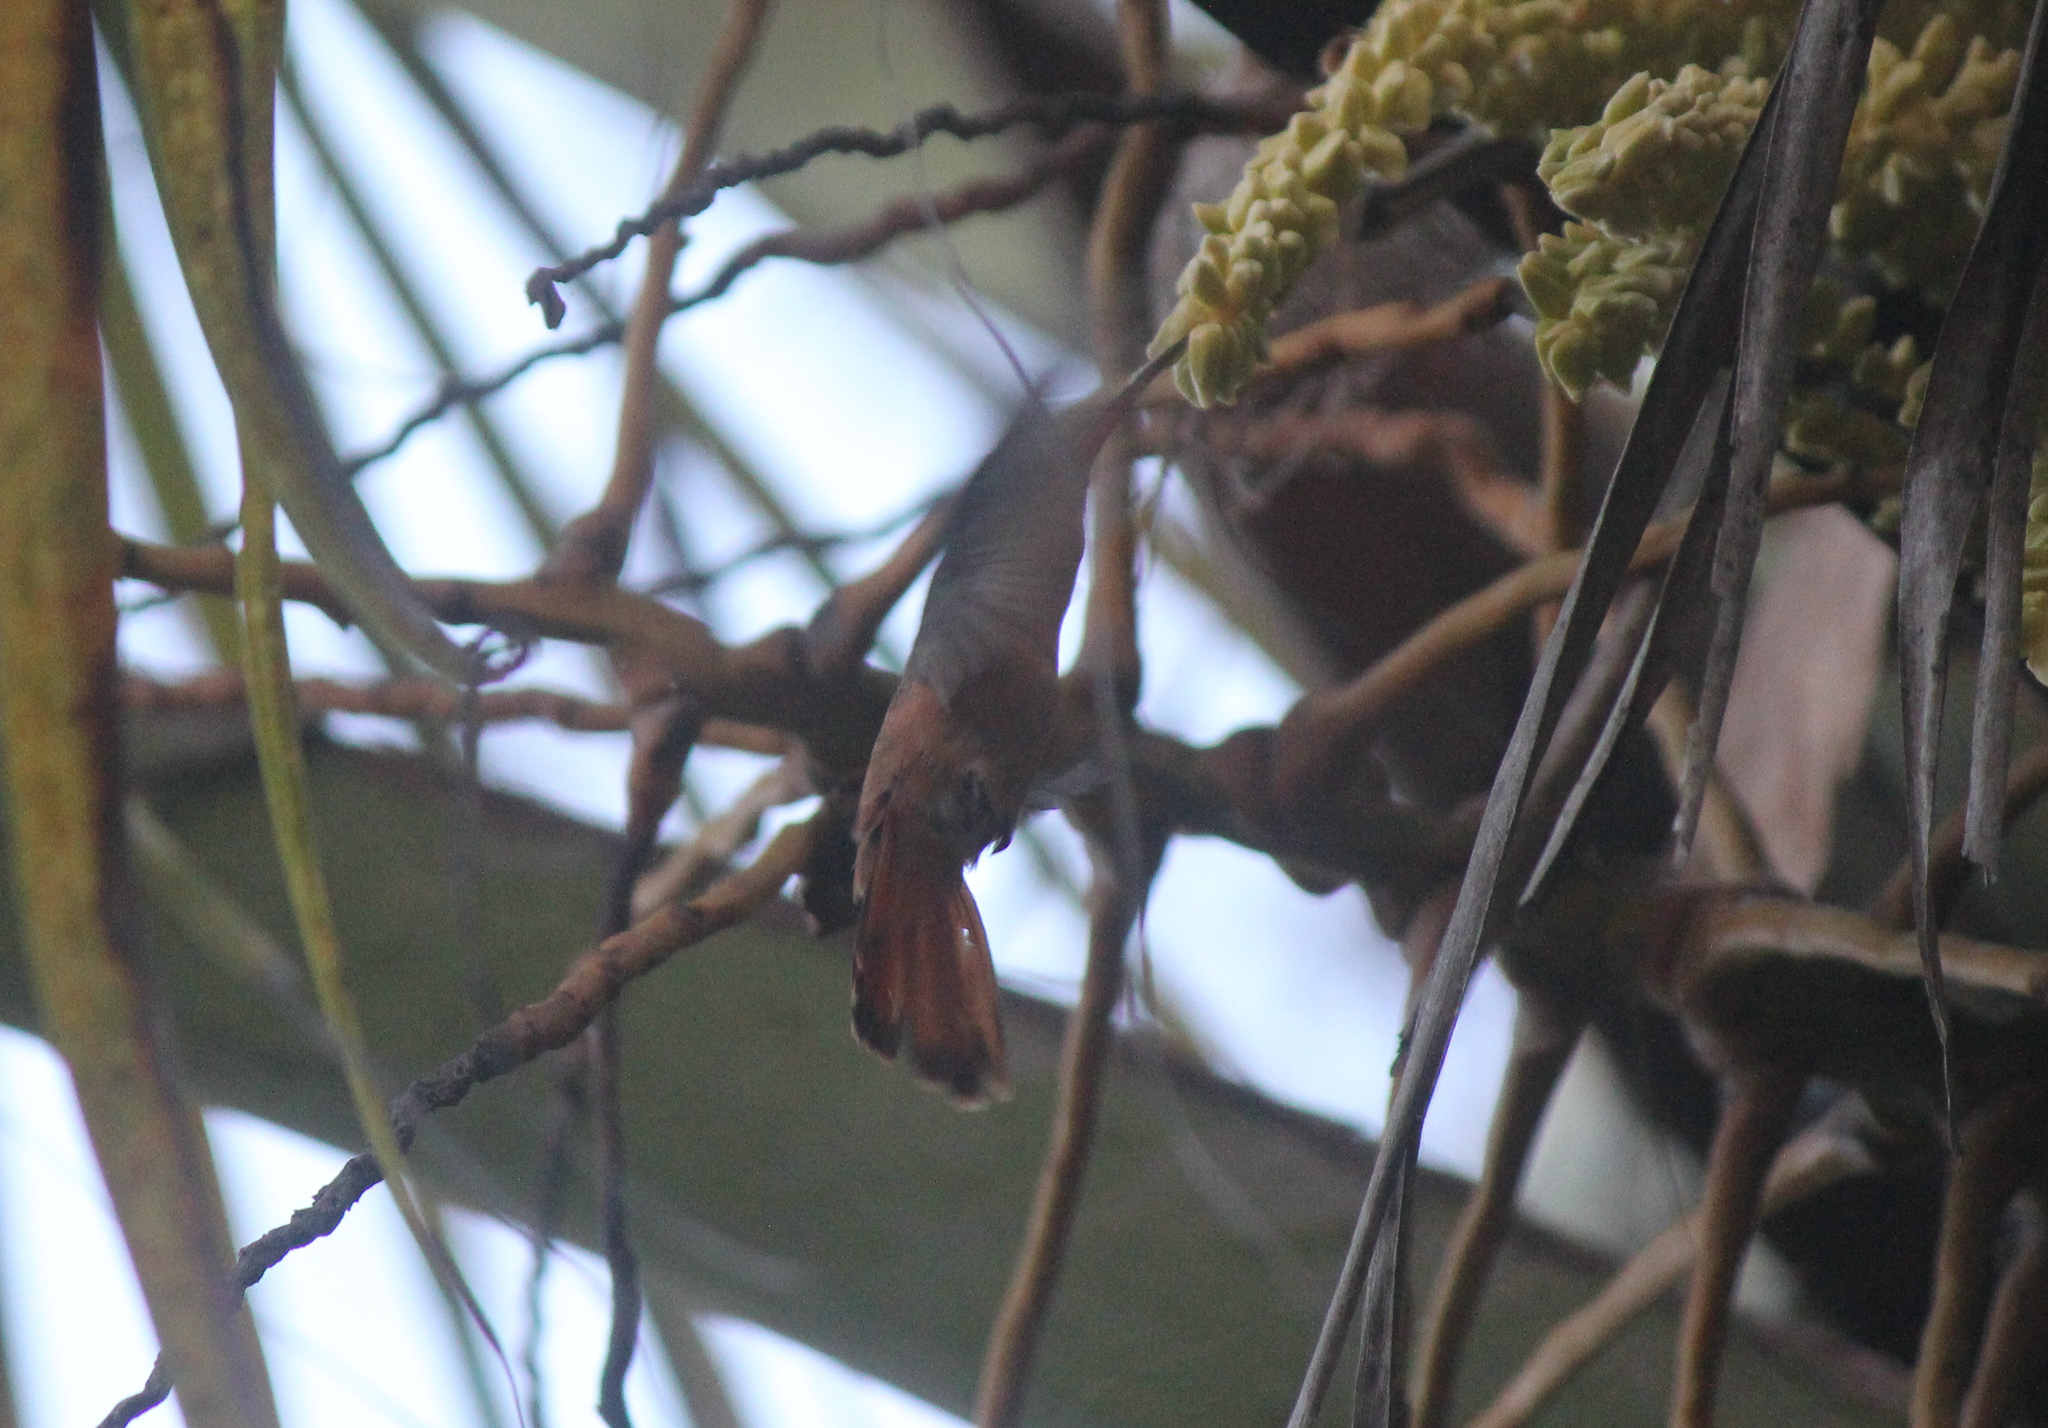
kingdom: Animalia
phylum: Chordata
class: Aves
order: Apodiformes
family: Trochilidae
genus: Amazilia
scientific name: Amazilia rutila
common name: Cinnamon hummingbird
